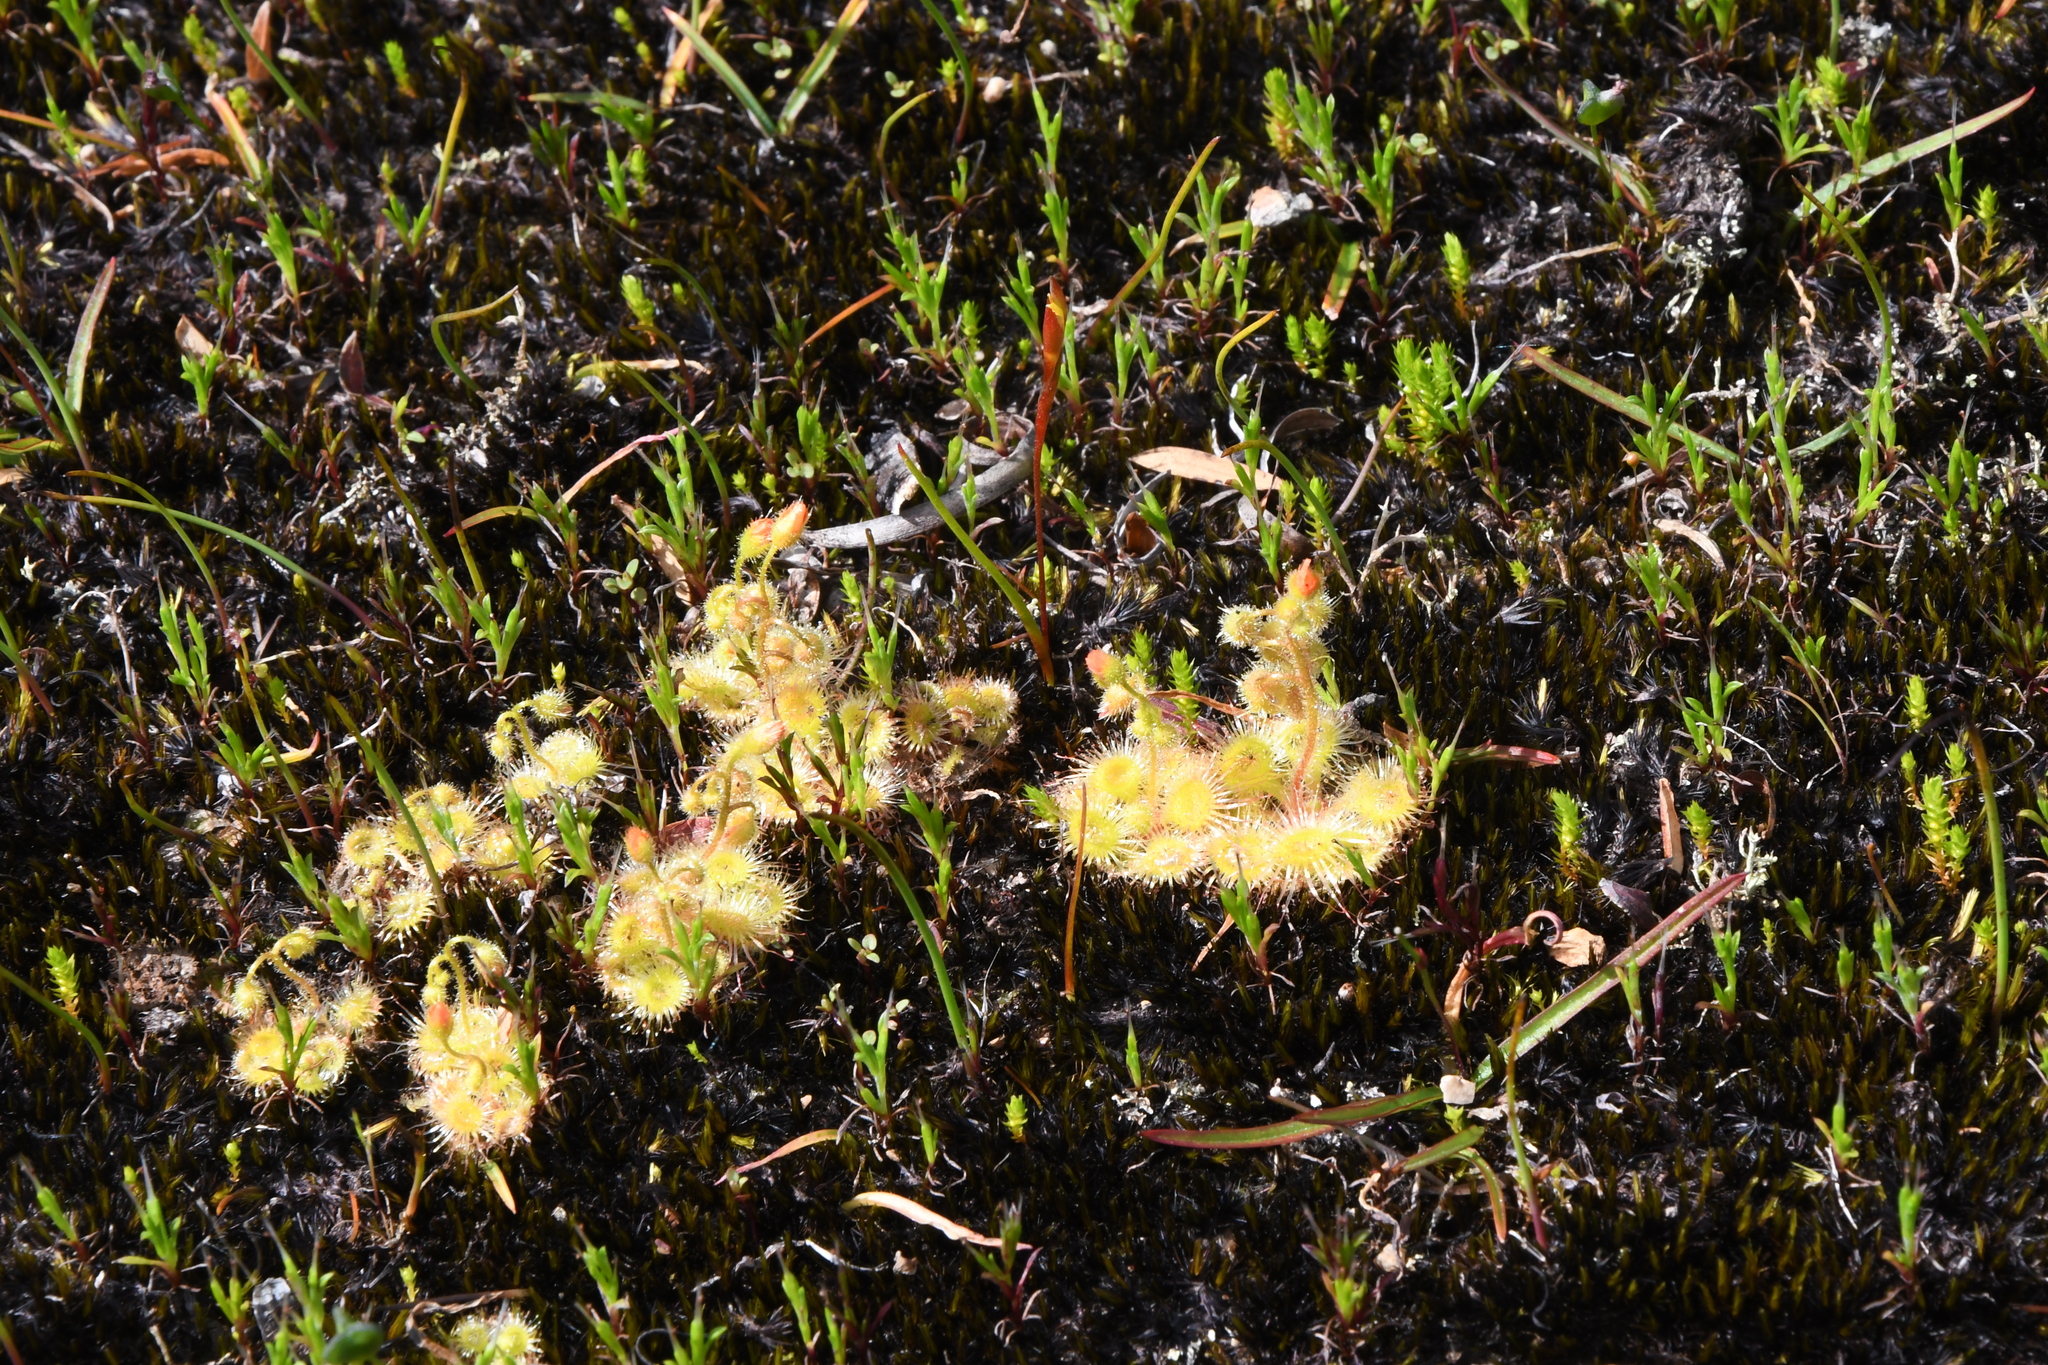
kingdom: Plantae
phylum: Tracheophyta
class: Magnoliopsida
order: Caryophyllales
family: Droseraceae
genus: Drosera
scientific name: Drosera glanduligera
